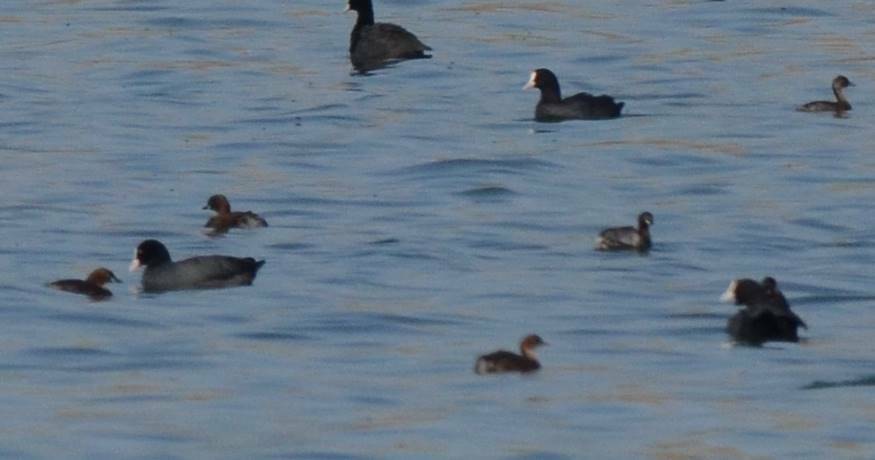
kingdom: Animalia
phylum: Chordata
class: Aves
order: Gruiformes
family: Rallidae
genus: Fulica
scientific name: Fulica atra
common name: Eurasian coot
